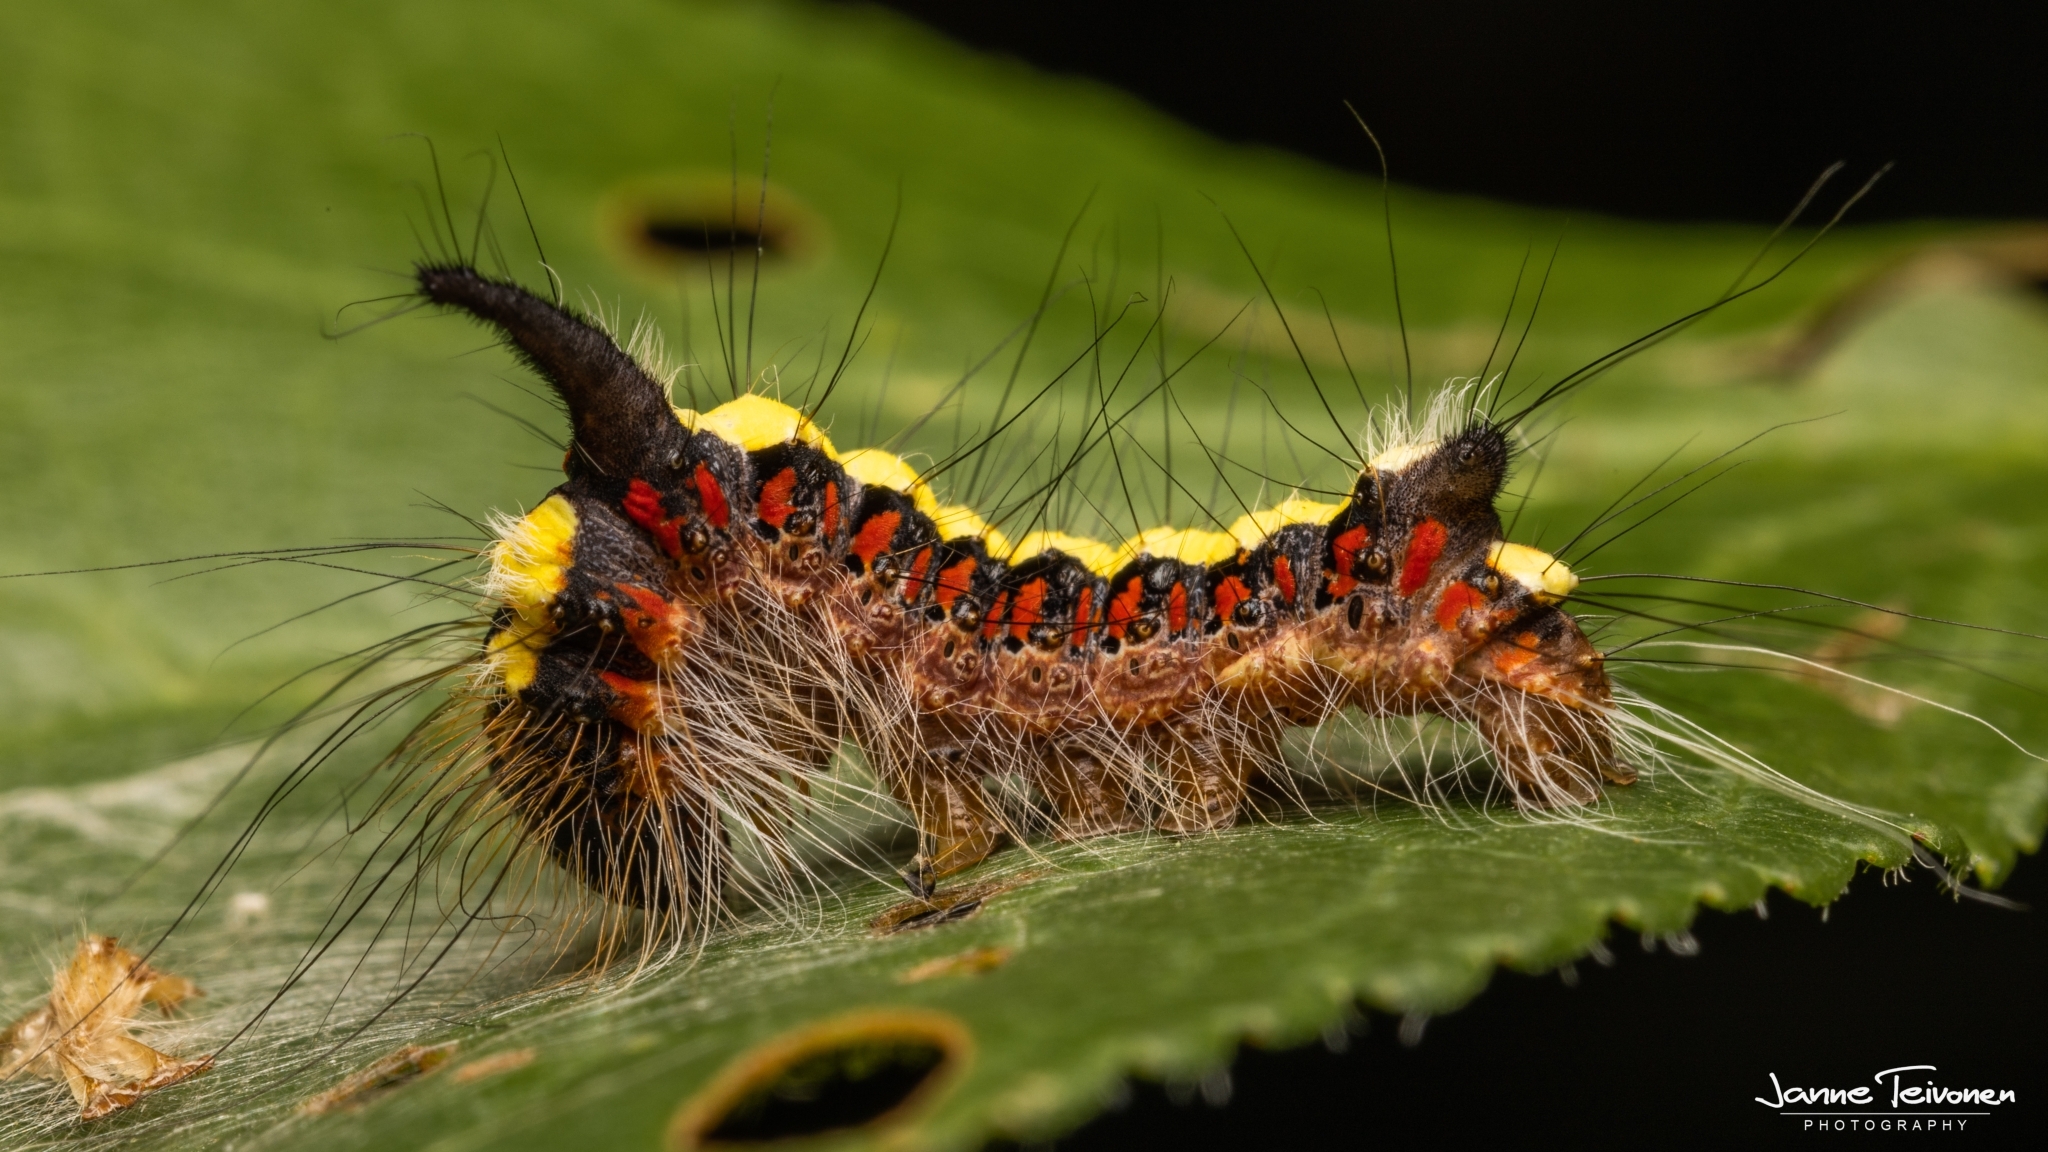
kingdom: Animalia
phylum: Arthropoda
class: Insecta
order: Lepidoptera
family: Noctuidae
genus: Acronicta
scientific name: Acronicta psi
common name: Grey dagger
